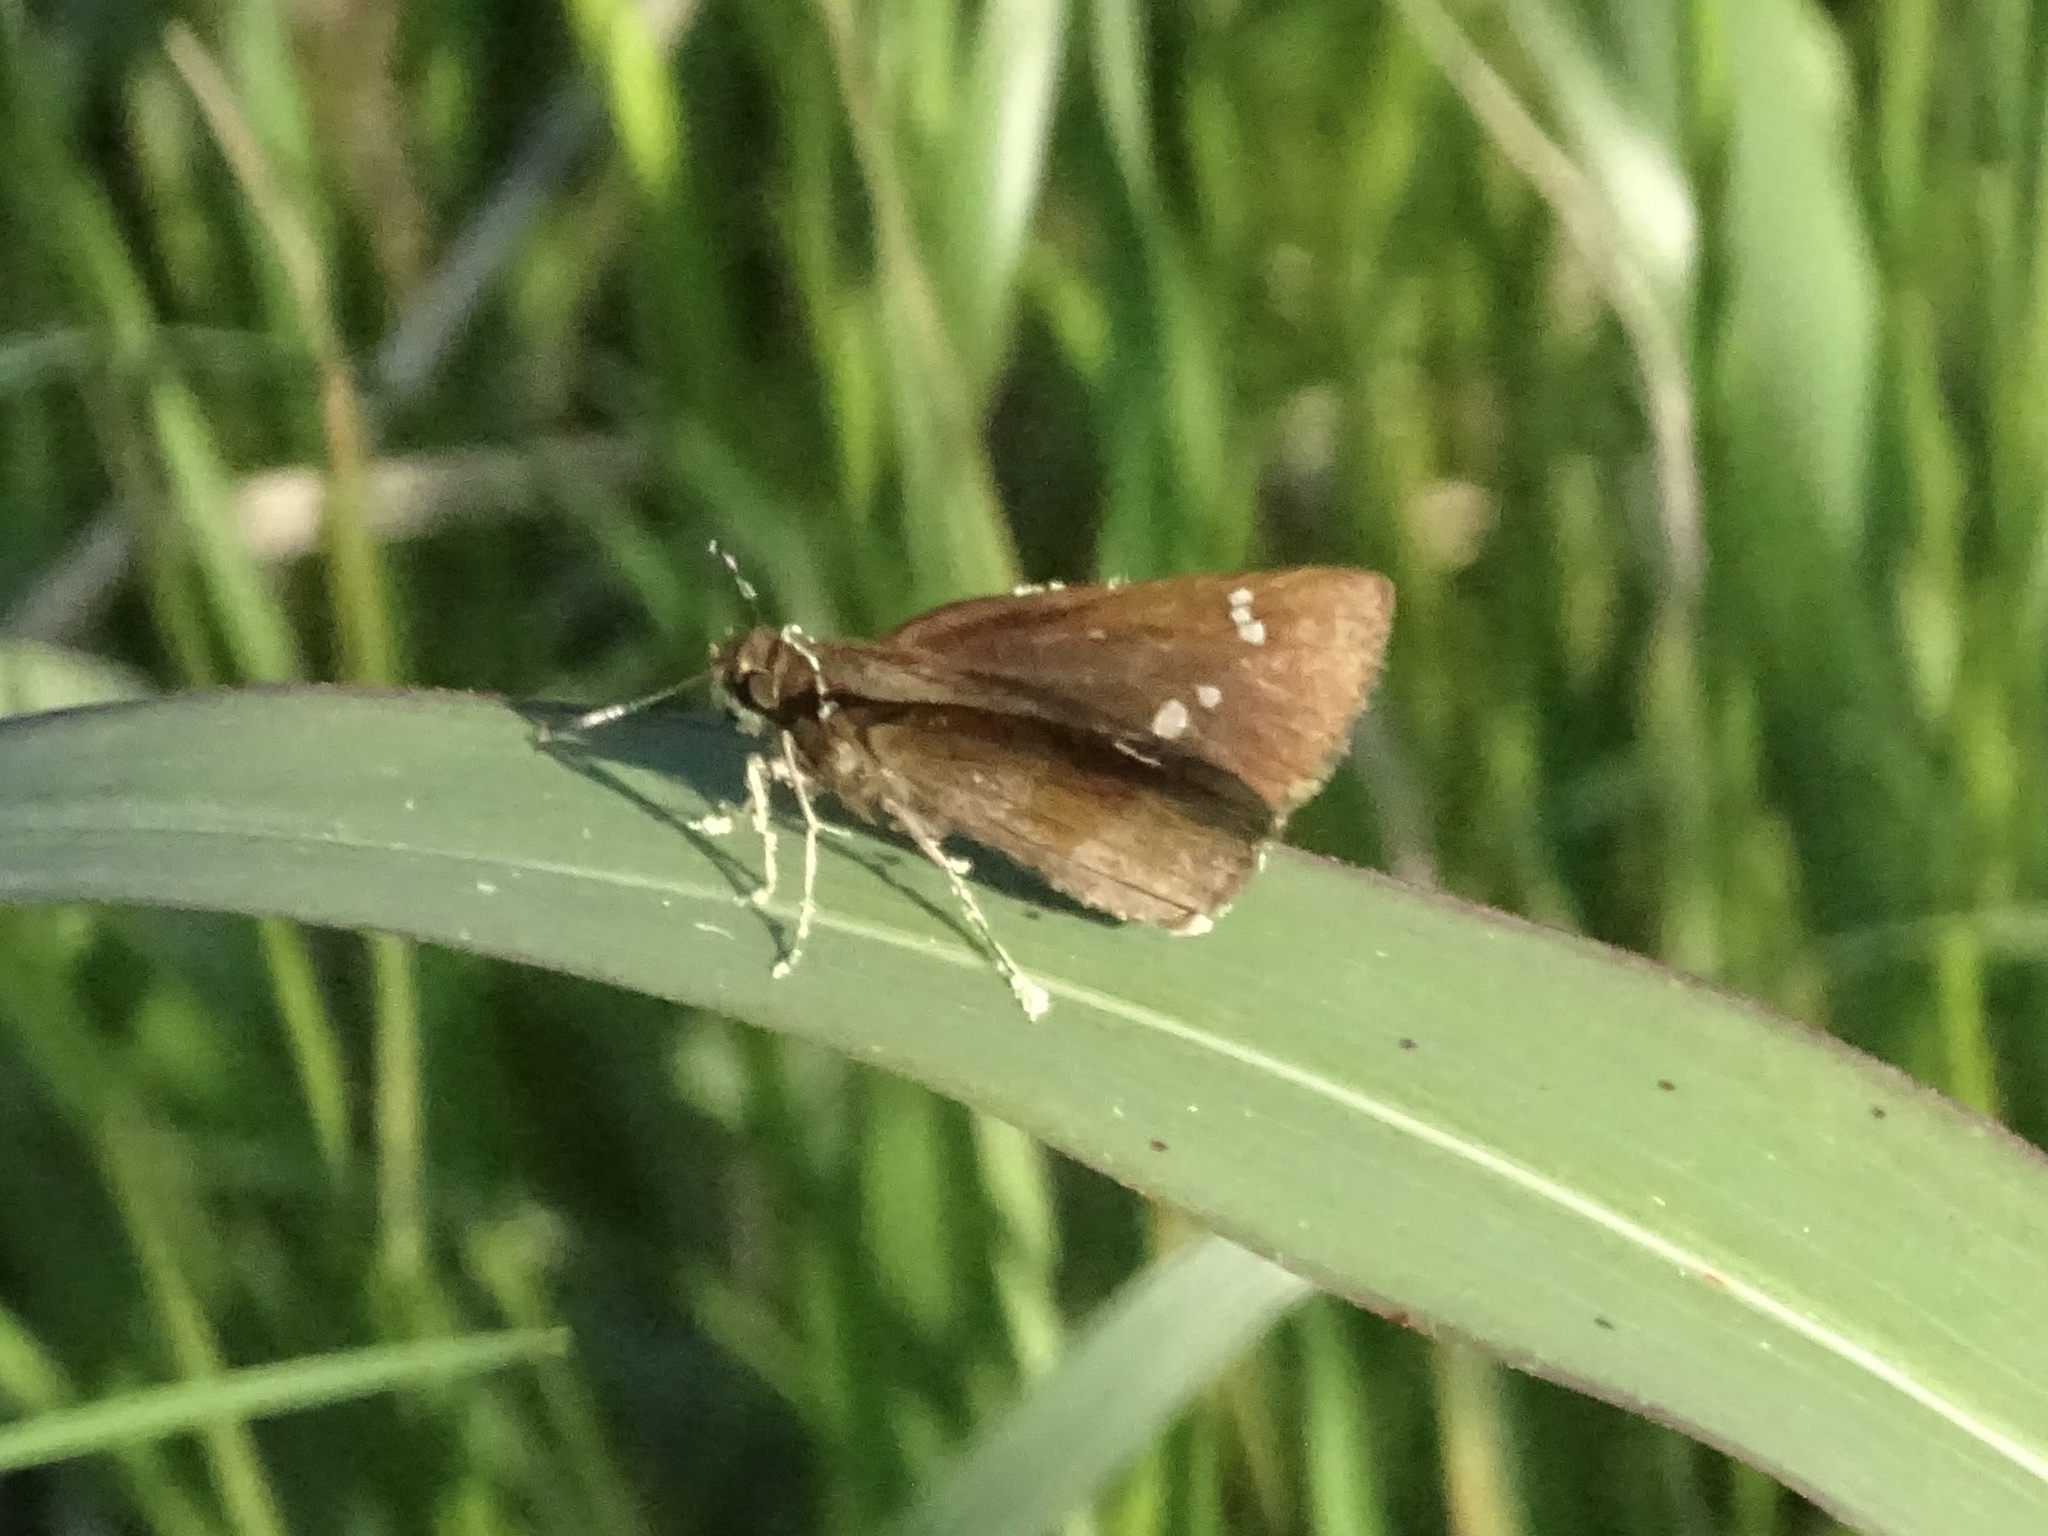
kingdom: Animalia
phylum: Arthropoda
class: Insecta
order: Lepidoptera
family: Hesperiidae
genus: Lerema
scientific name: Lerema accius
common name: Clouded skipper
